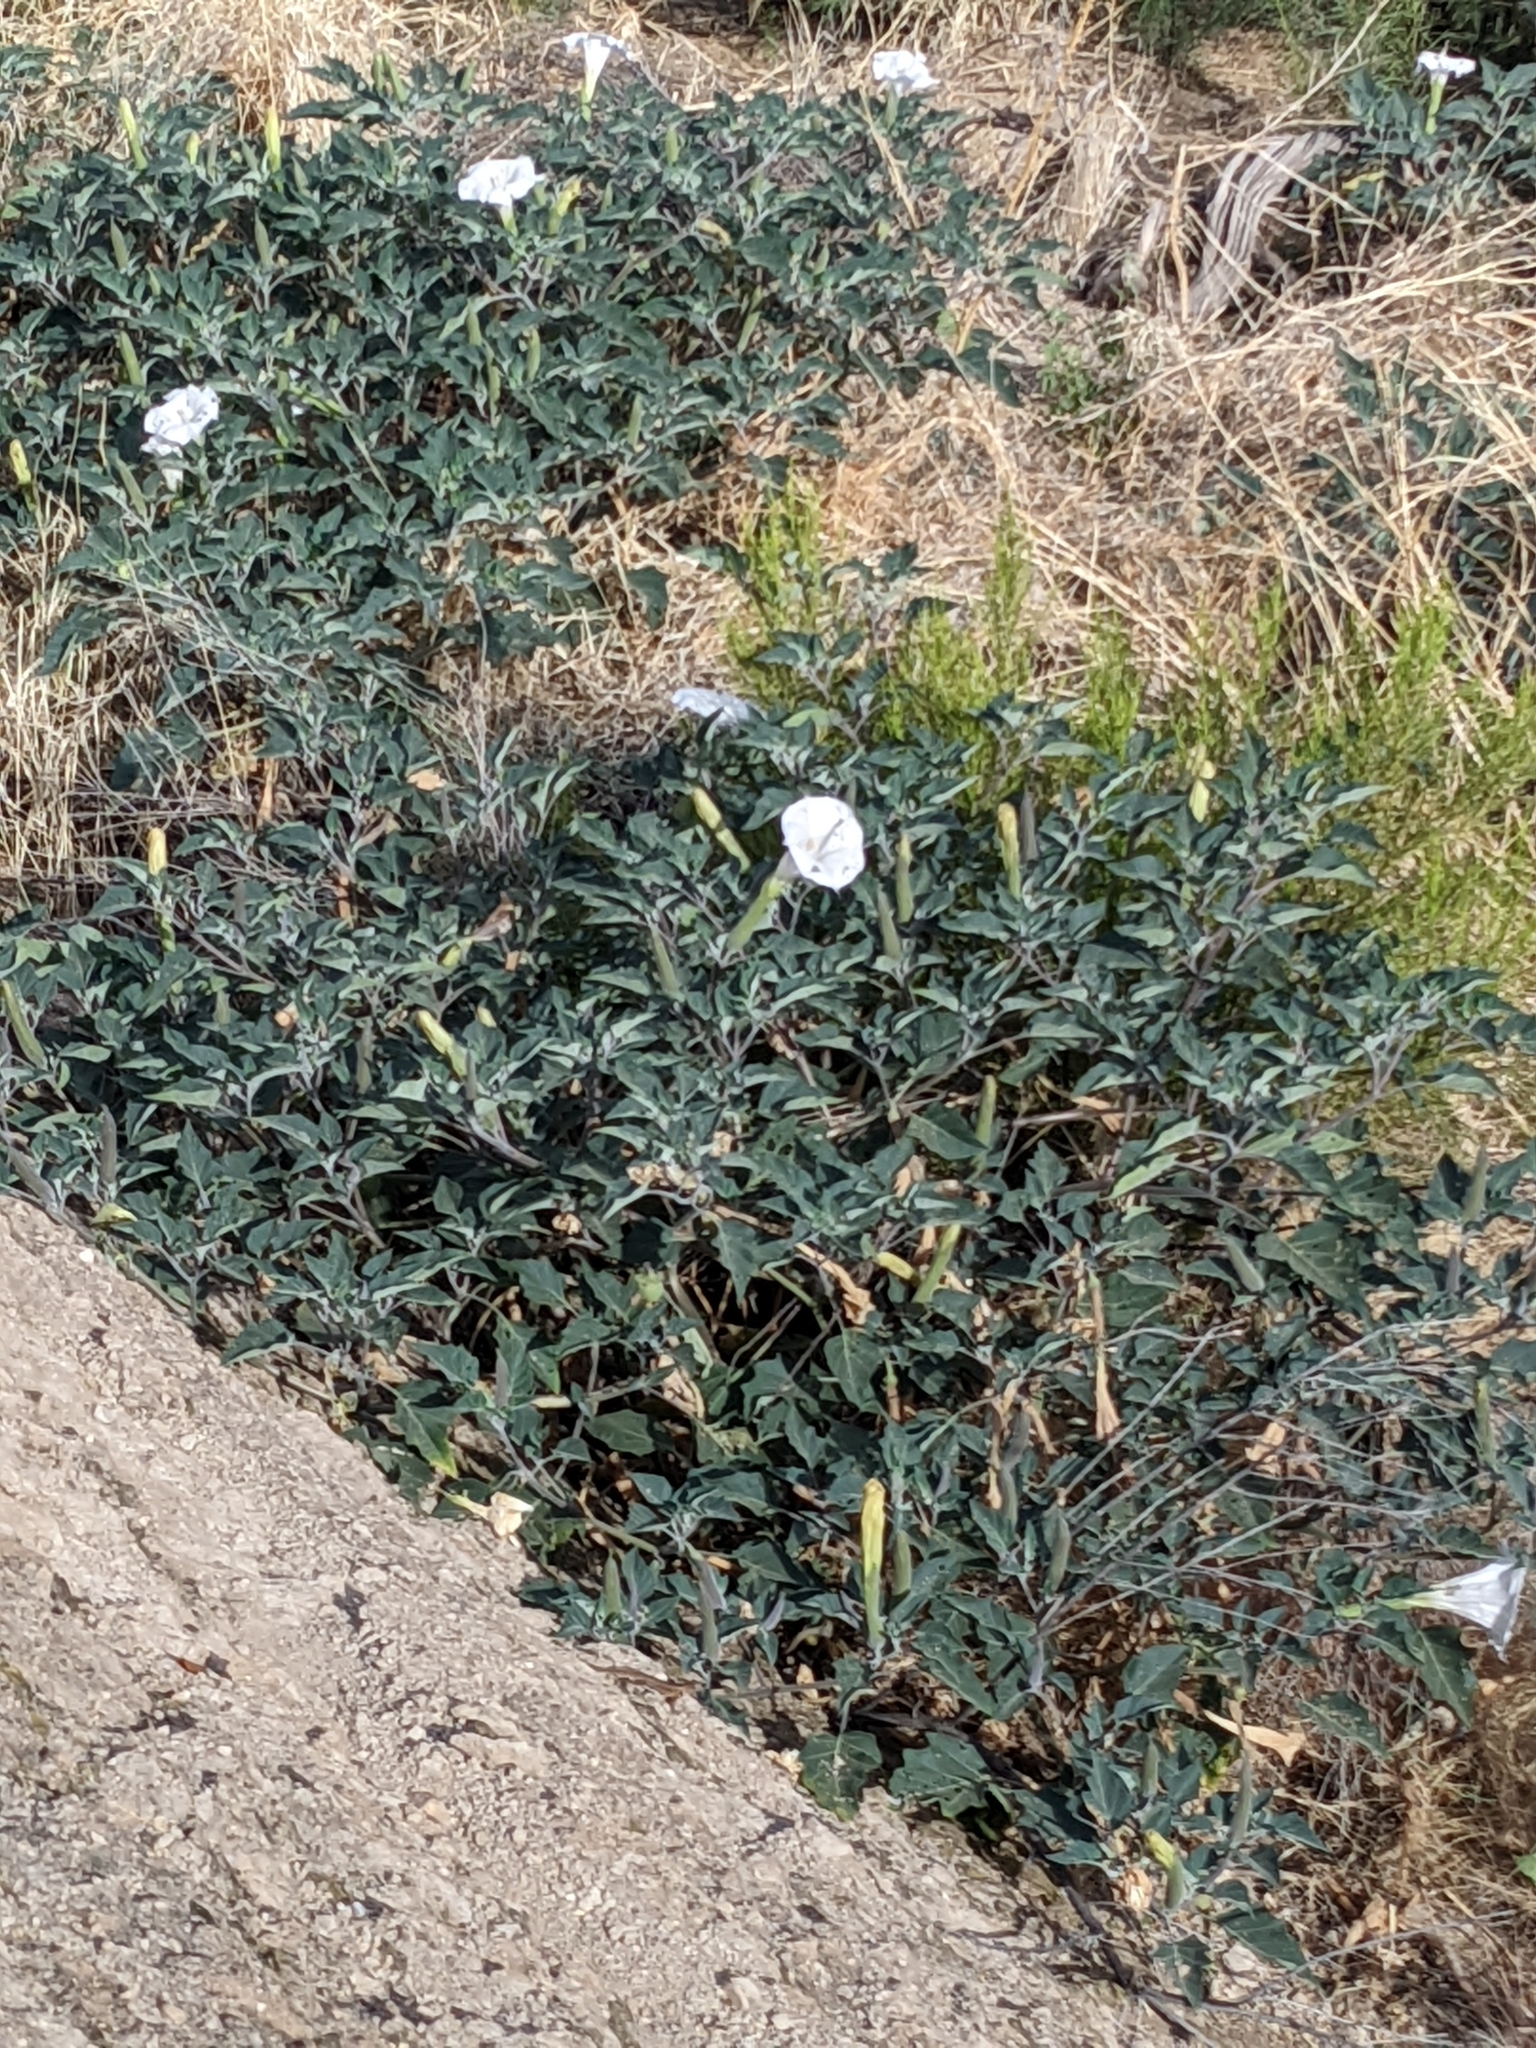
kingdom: Plantae
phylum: Tracheophyta
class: Magnoliopsida
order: Solanales
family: Solanaceae
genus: Datura
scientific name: Datura wrightii
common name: Sacred thorn-apple
